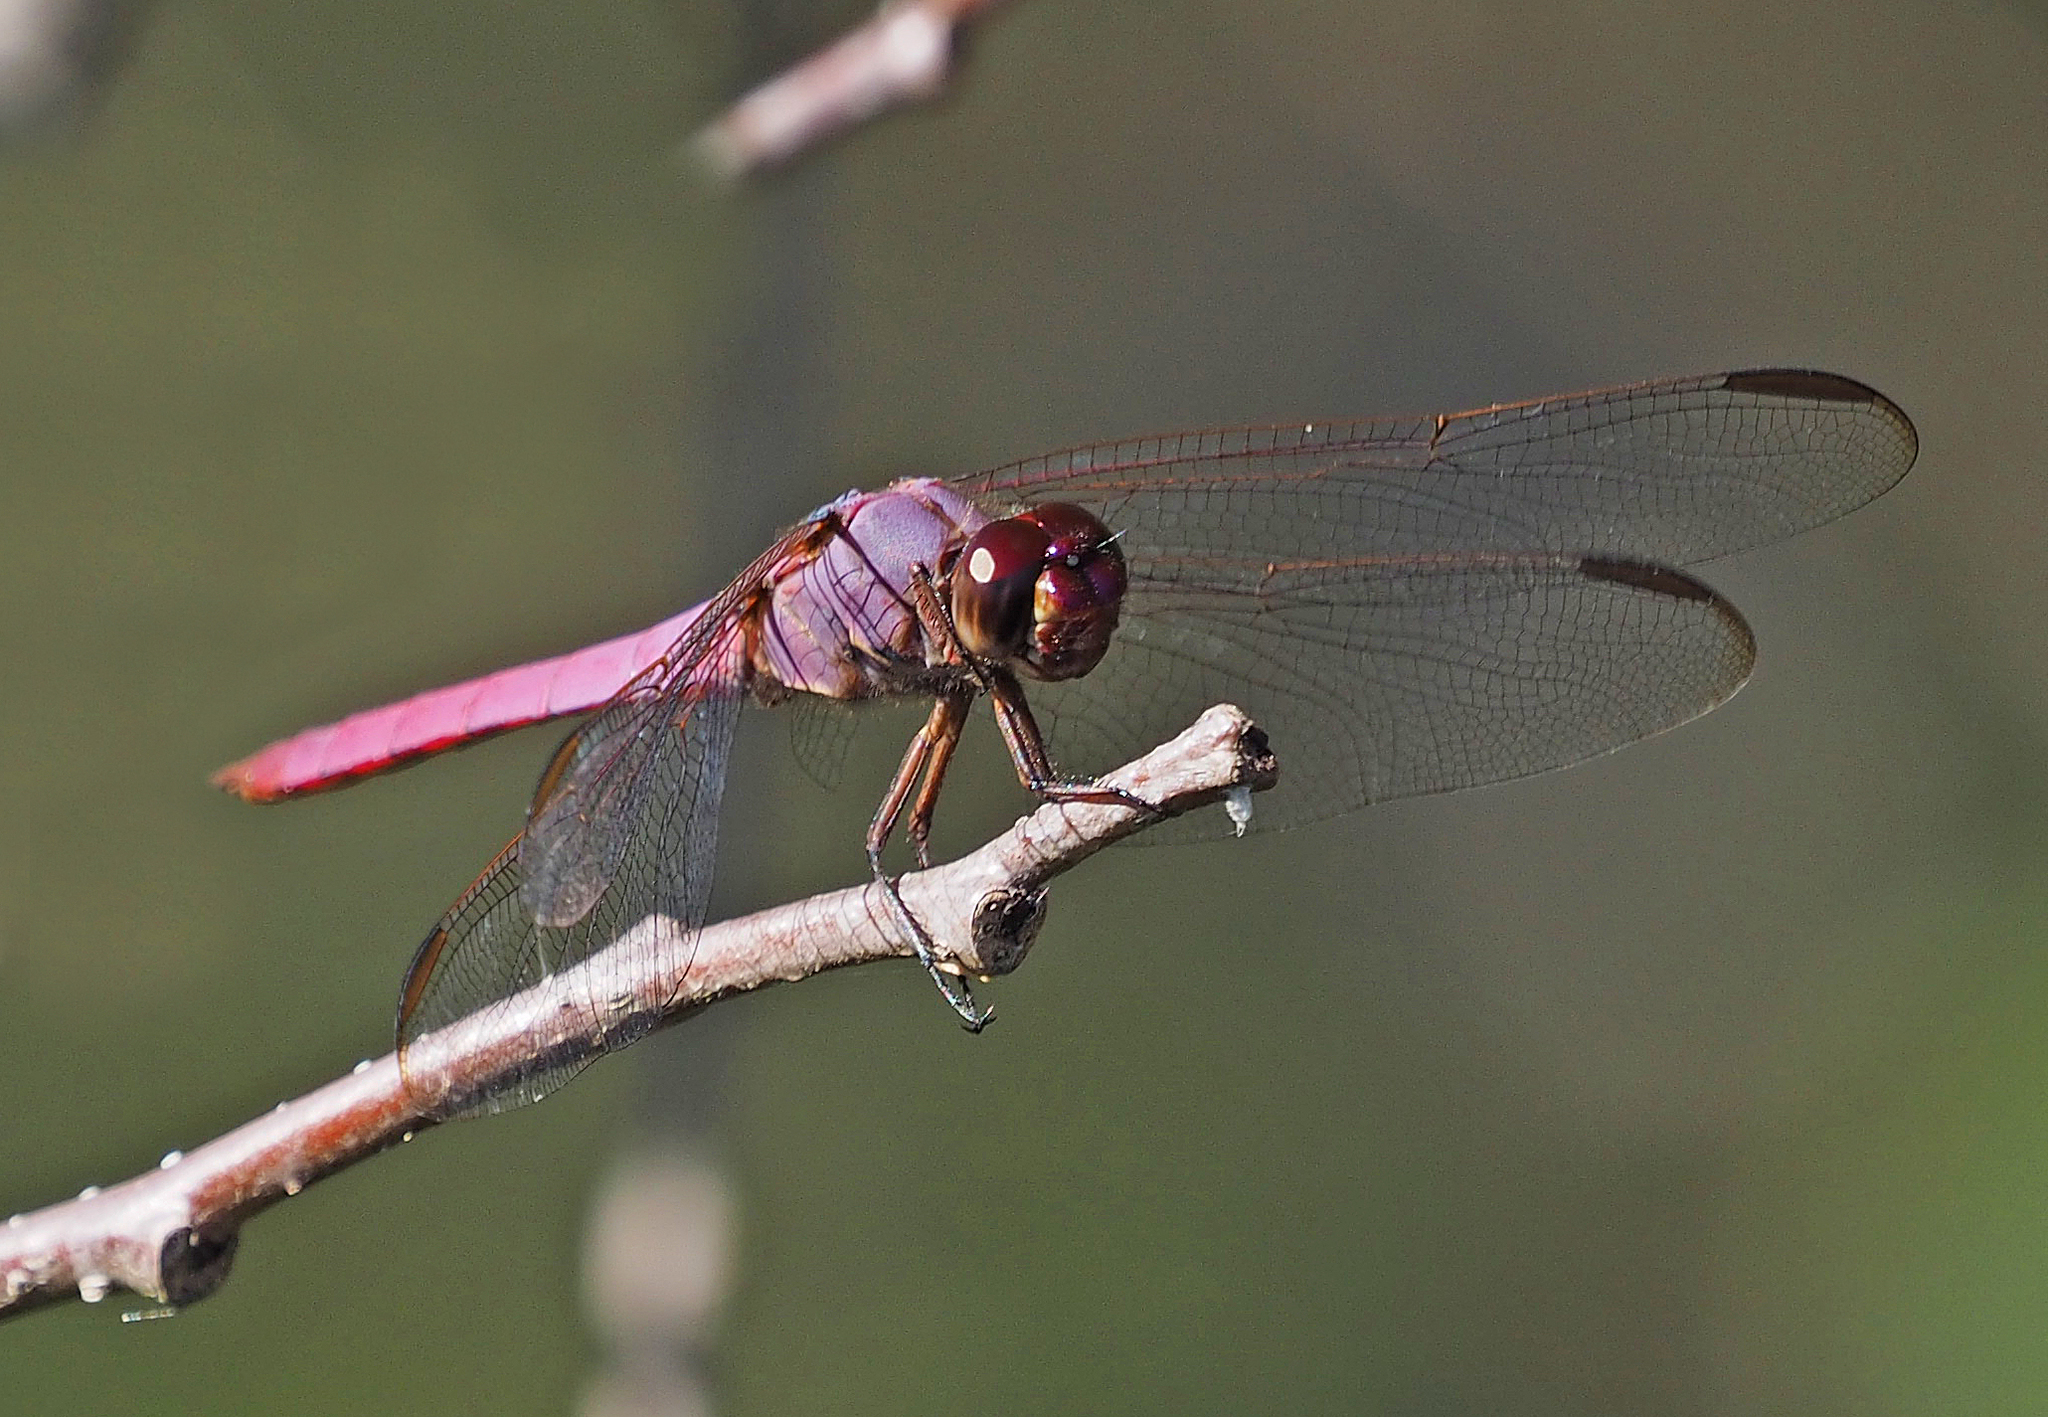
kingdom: Animalia
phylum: Arthropoda
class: Insecta
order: Odonata
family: Libellulidae
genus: Orthemis
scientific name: Orthemis ferruginea
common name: Roseate skimmer
